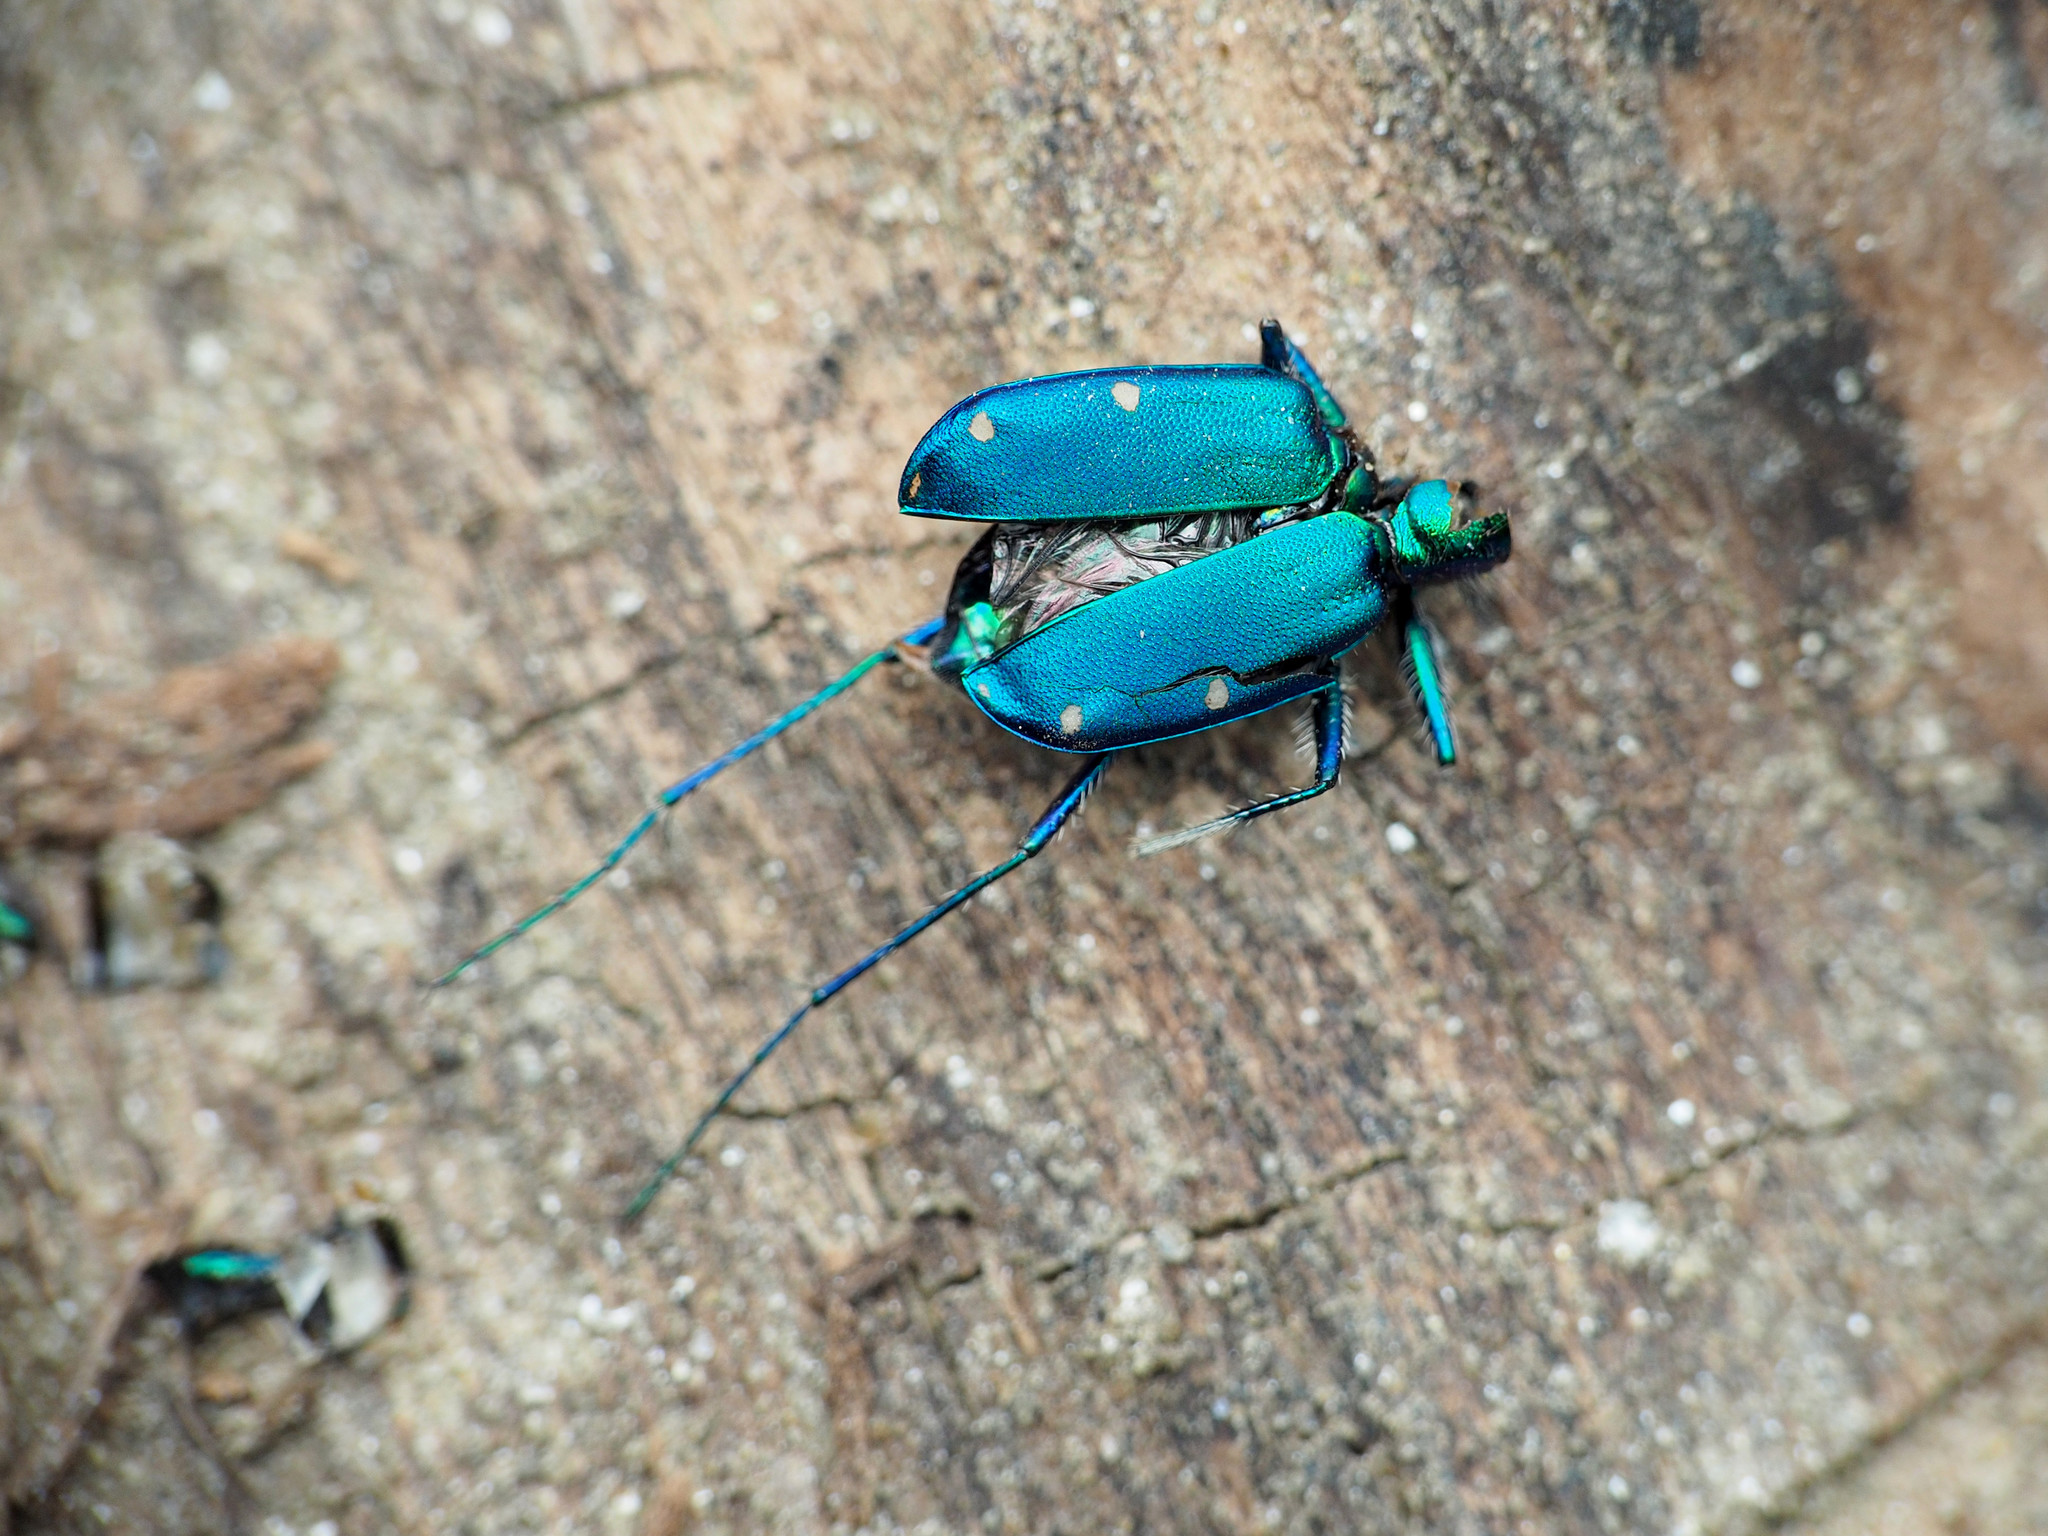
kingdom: Animalia
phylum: Arthropoda
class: Insecta
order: Coleoptera
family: Carabidae
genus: Cicindela
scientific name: Cicindela sexguttata
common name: Six-spotted tiger beetle
